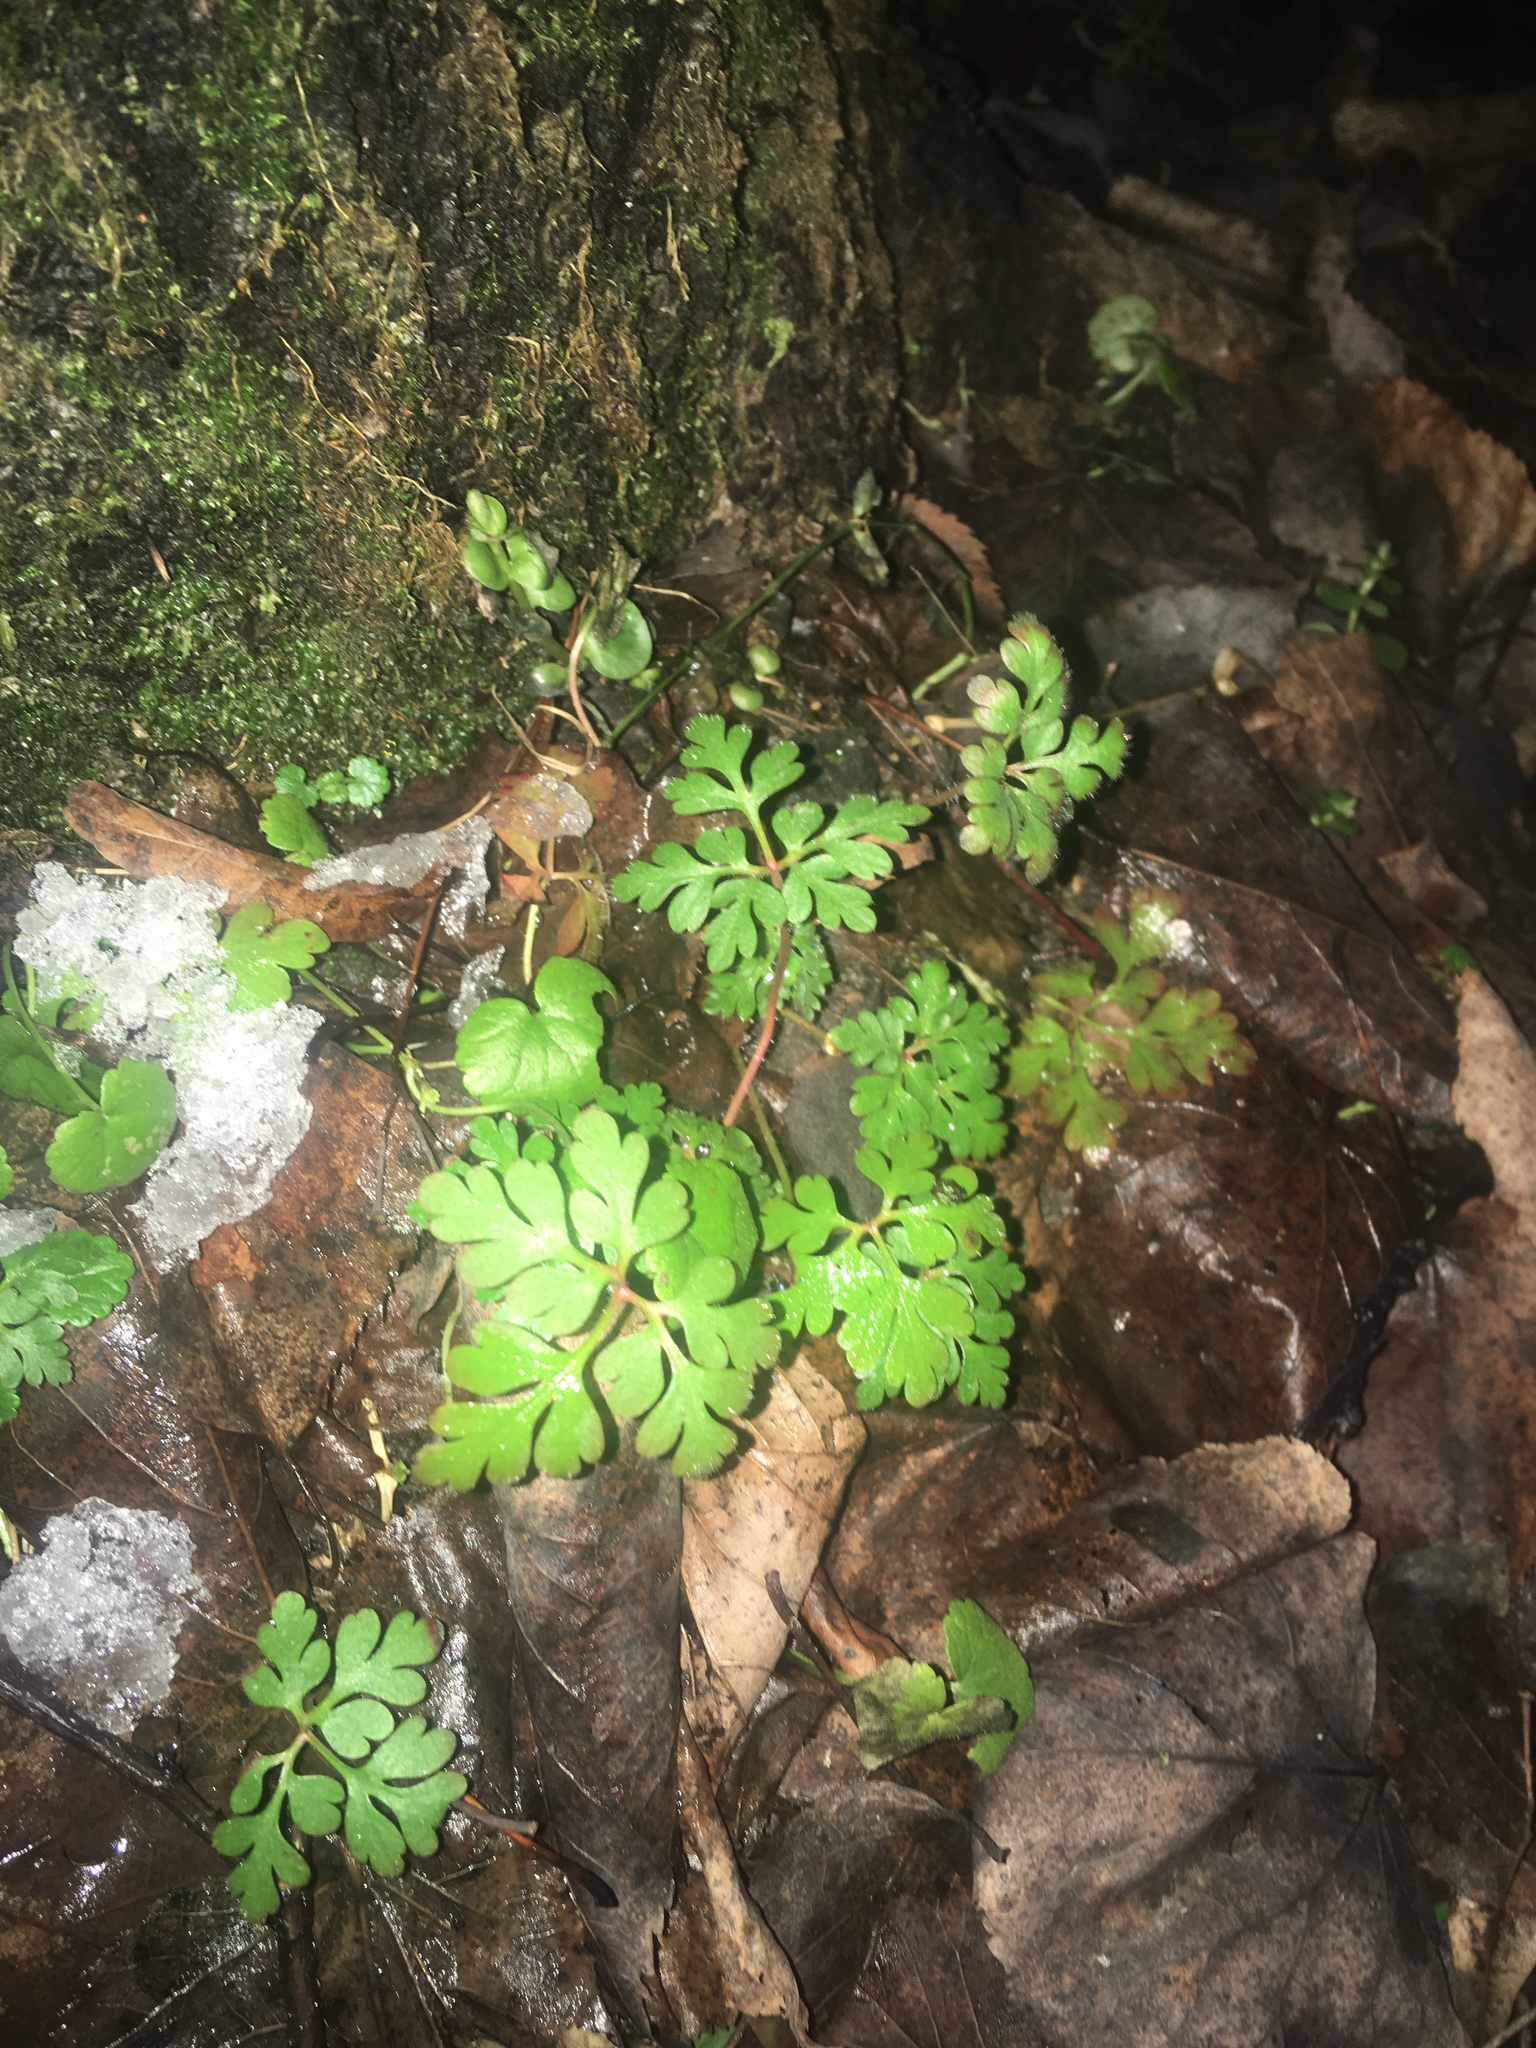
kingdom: Plantae
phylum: Tracheophyta
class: Magnoliopsida
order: Geraniales
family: Geraniaceae
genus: Geranium
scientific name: Geranium robertianum
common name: Herb-robert
